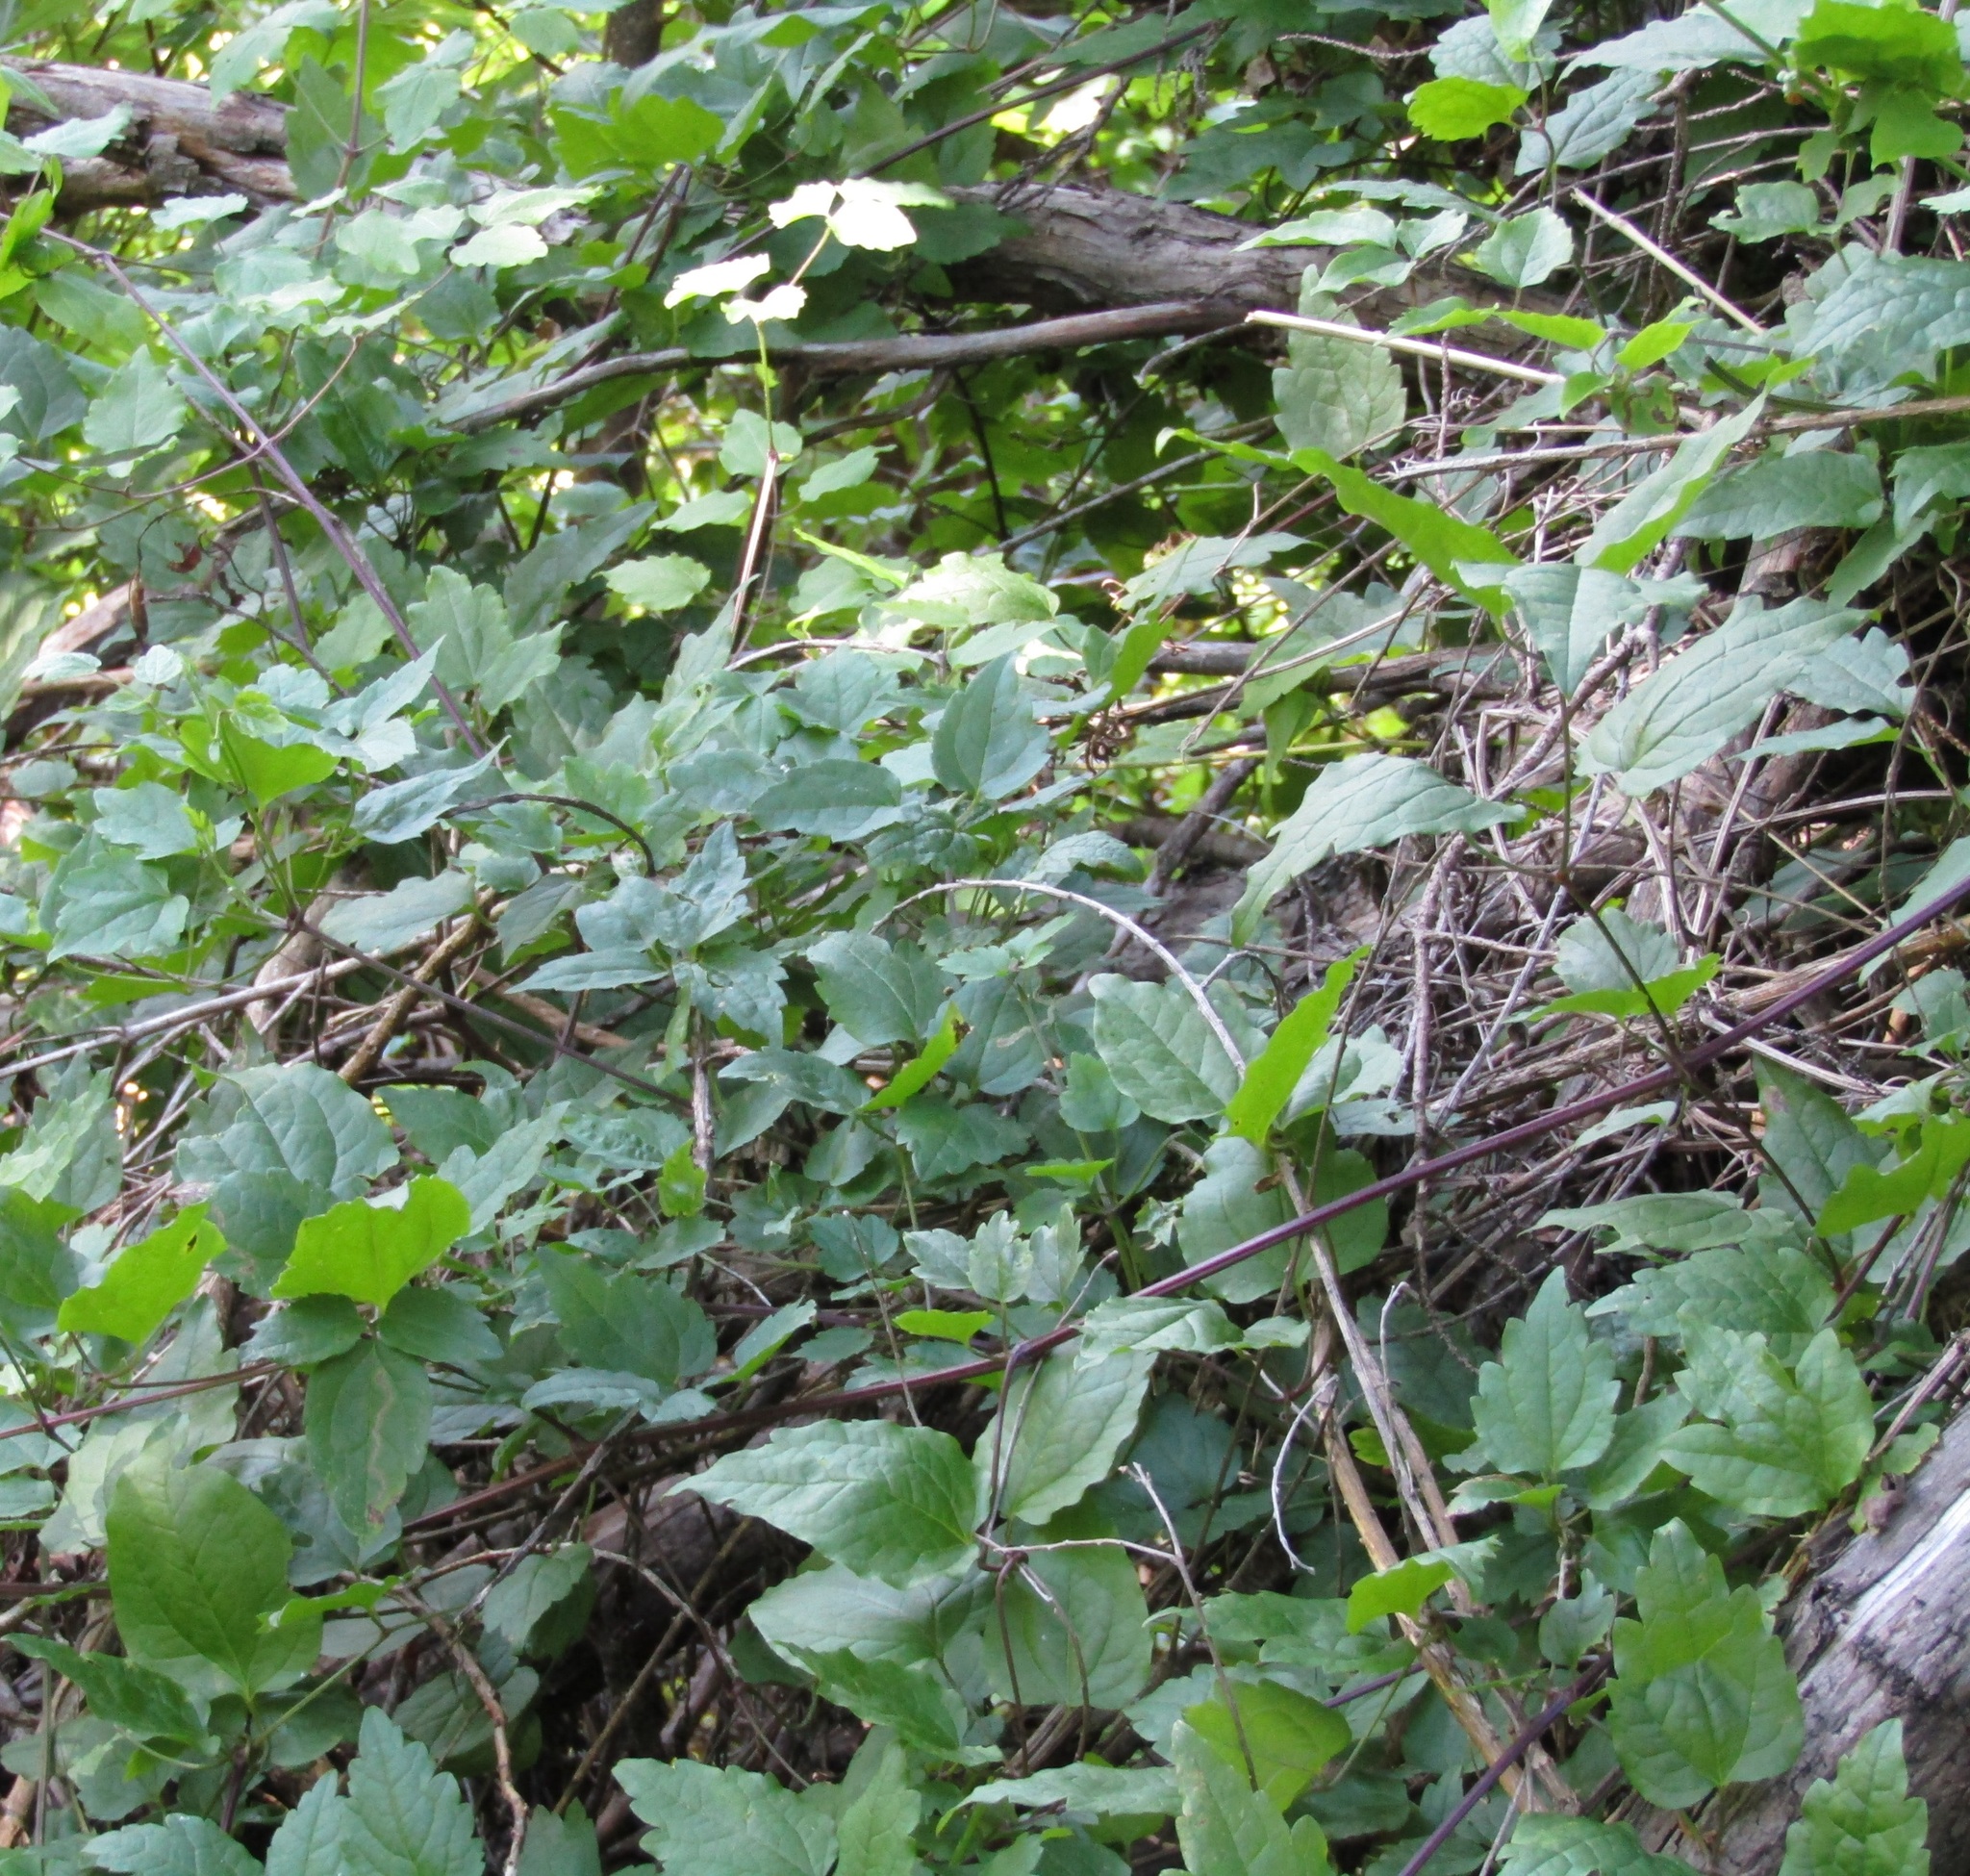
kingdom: Plantae
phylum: Tracheophyta
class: Magnoliopsida
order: Ranunculales
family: Ranunculaceae
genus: Clematis
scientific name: Clematis vitalba
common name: Evergreen clematis
